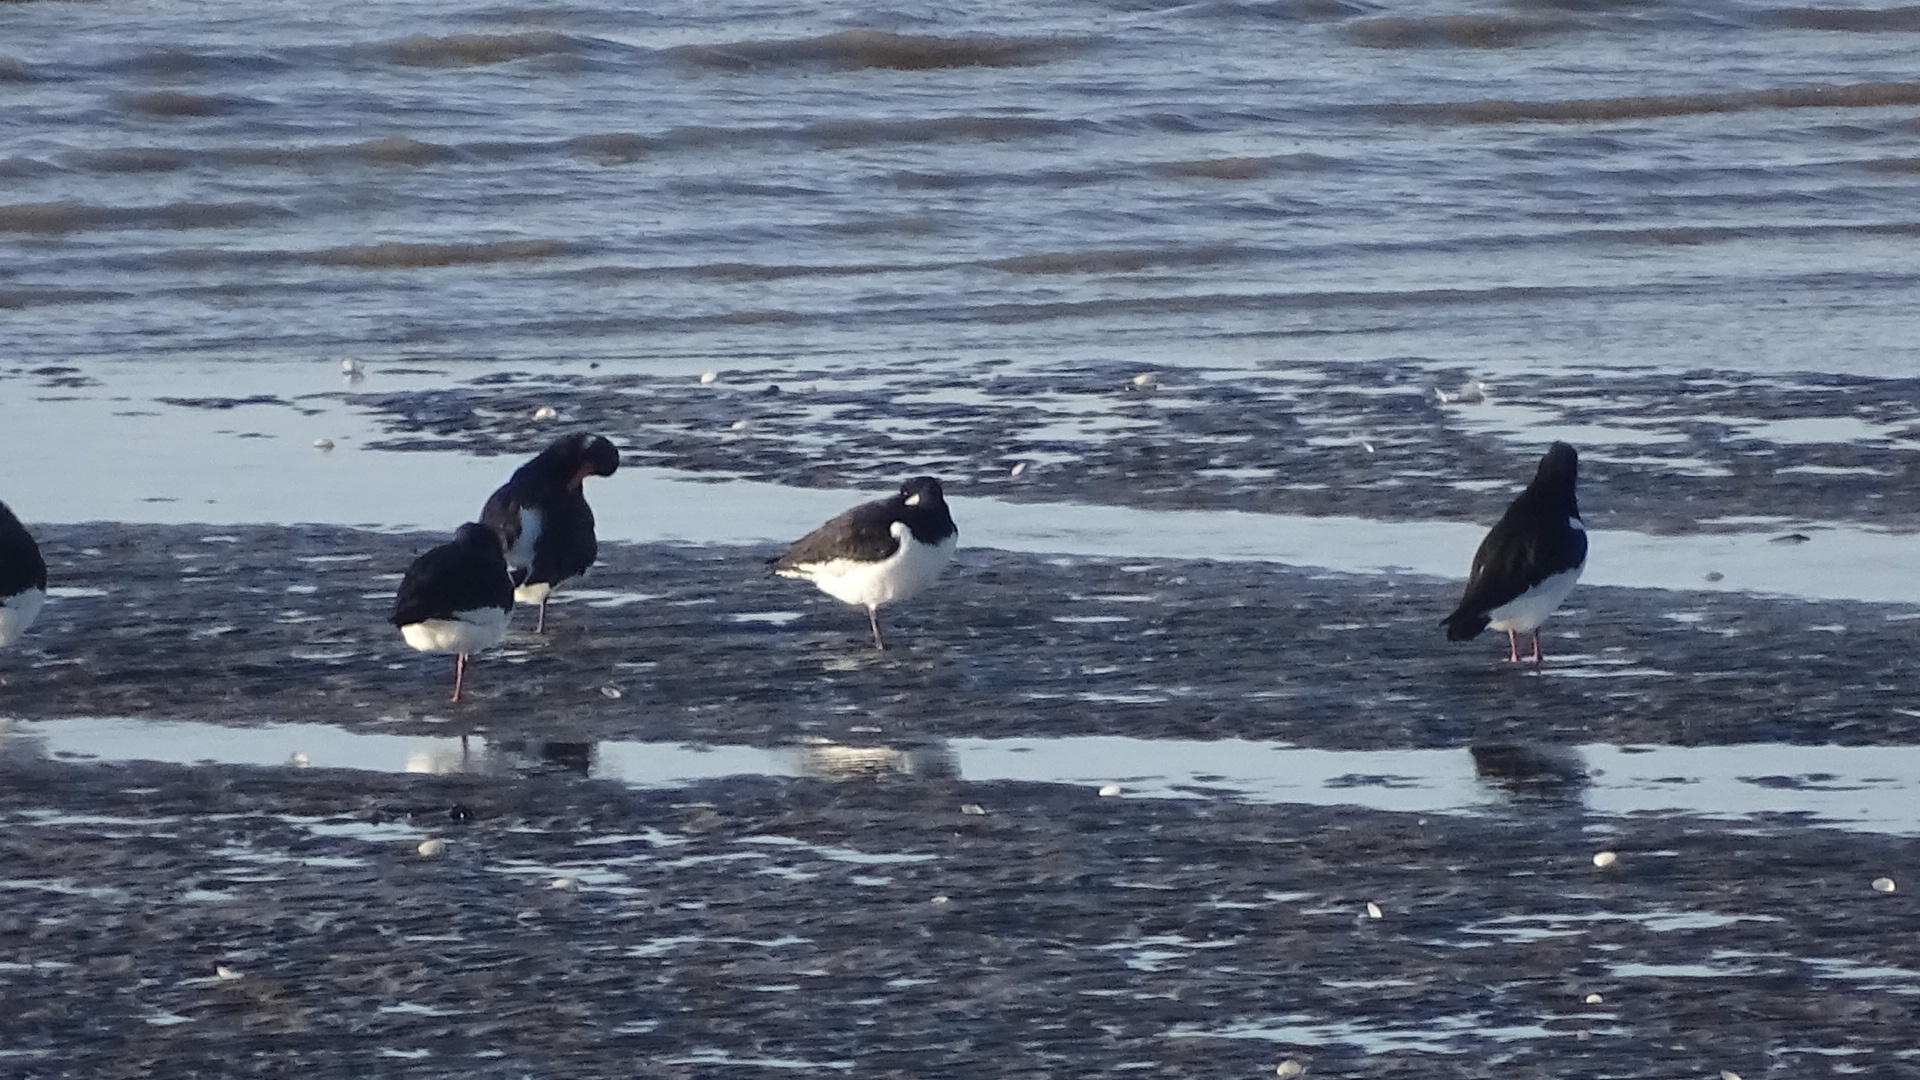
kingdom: Animalia
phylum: Chordata
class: Aves
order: Charadriiformes
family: Haematopodidae
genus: Haematopus
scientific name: Haematopus ostralegus
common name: Eurasian oystercatcher
